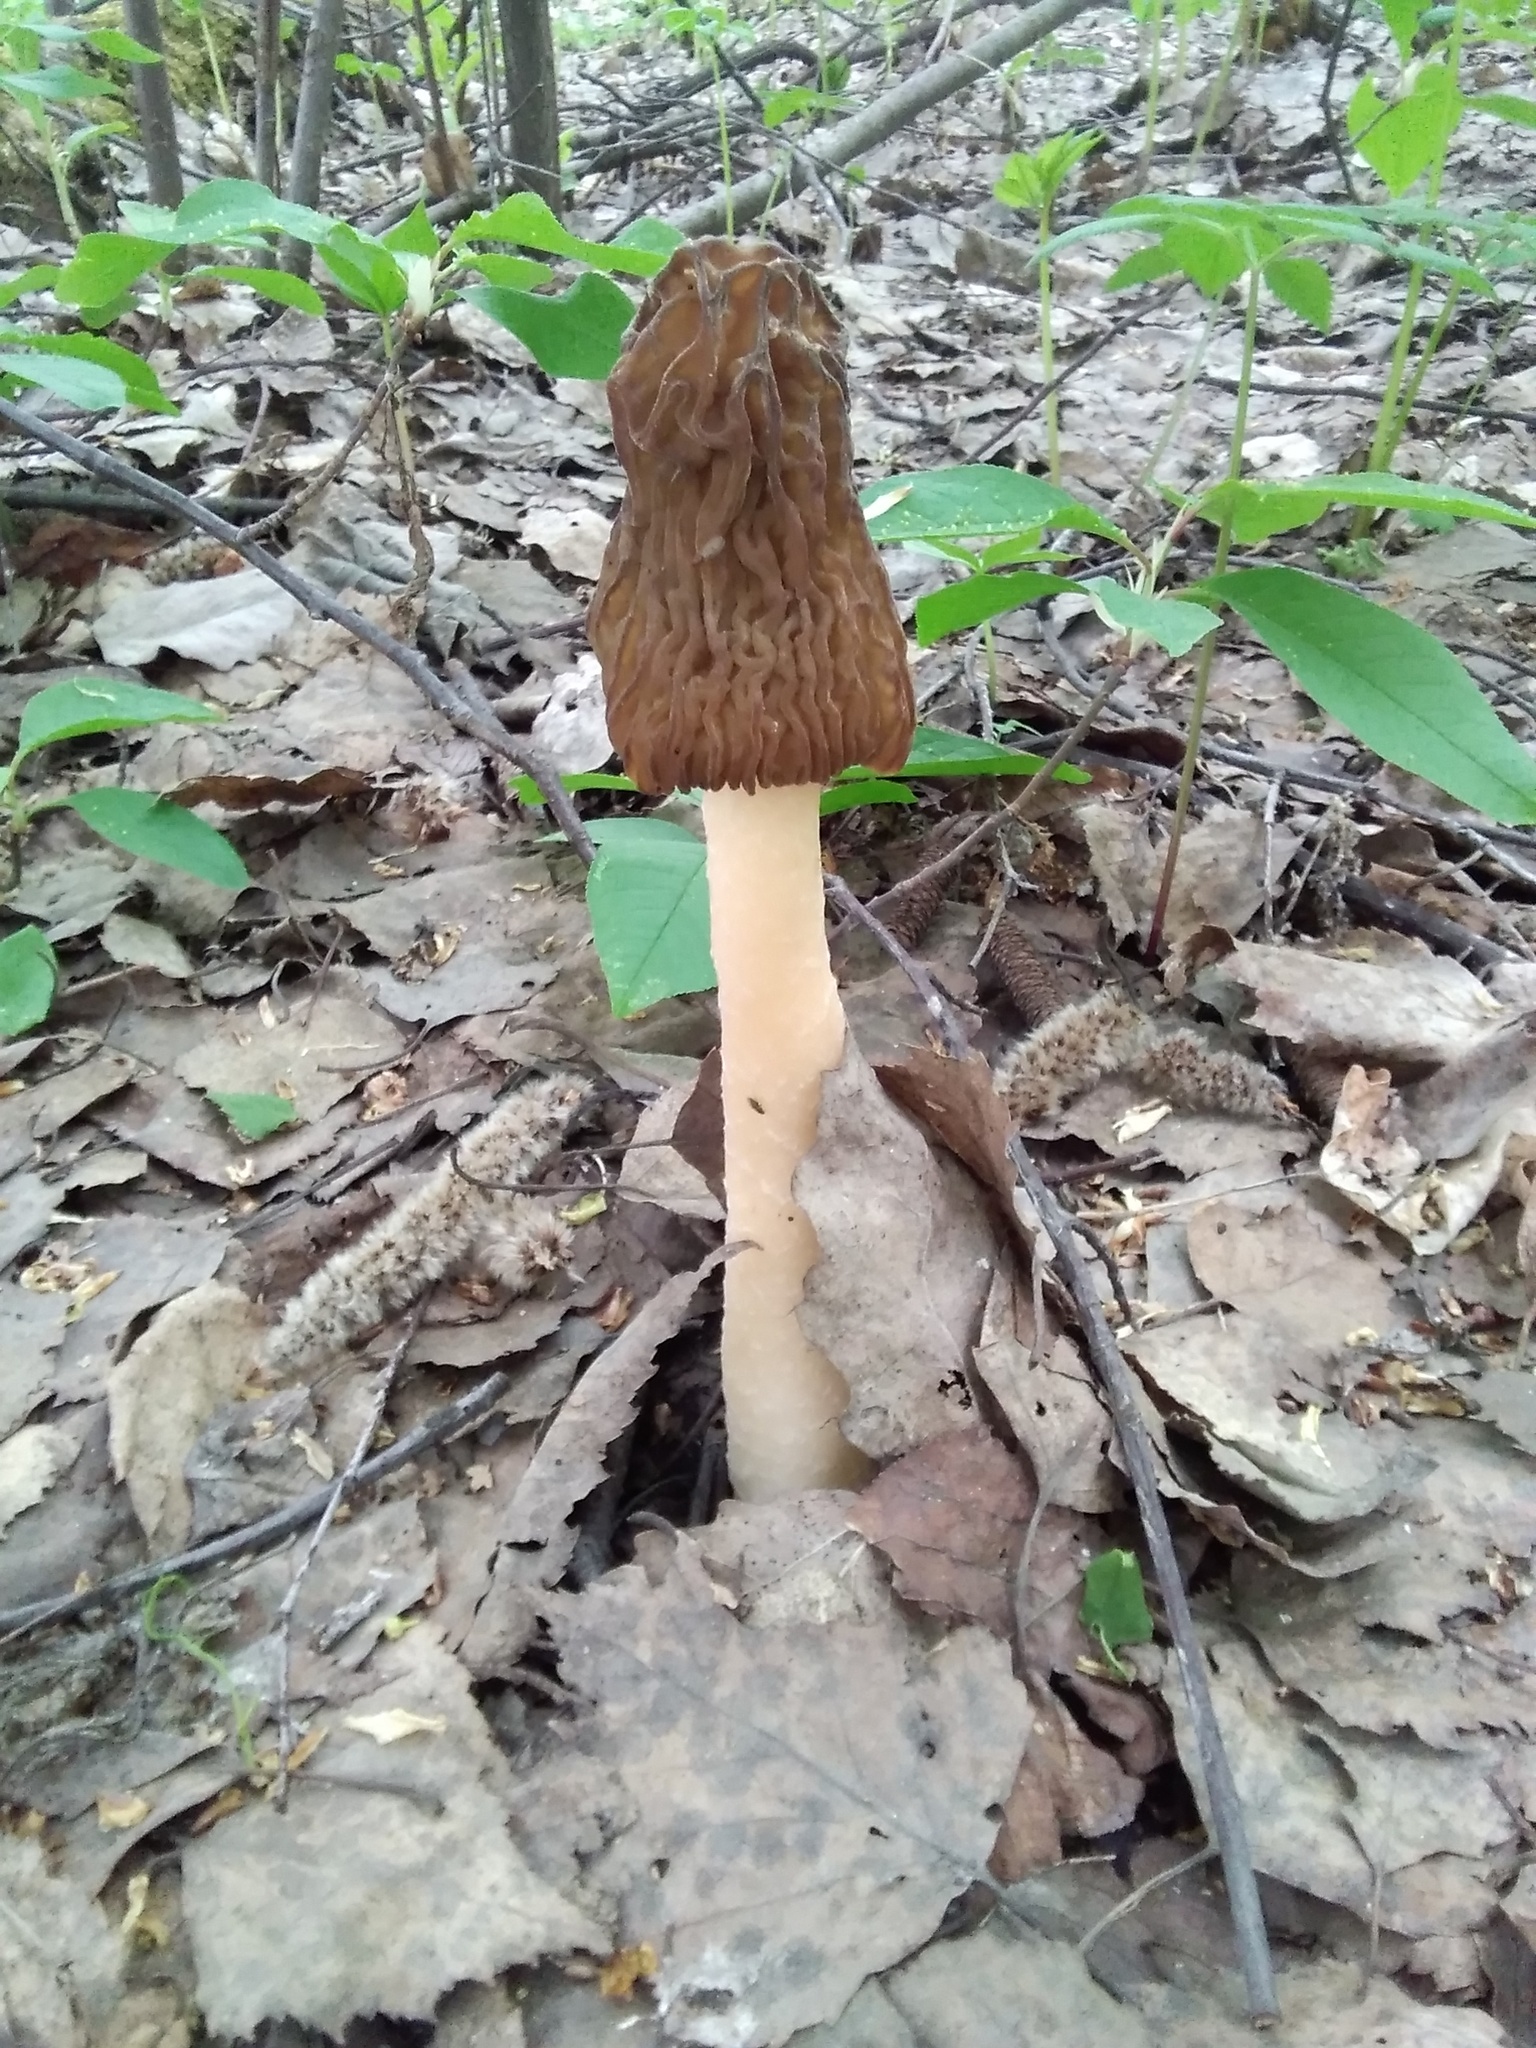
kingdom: Fungi
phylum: Ascomycota
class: Pezizomycetes
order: Pezizales
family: Morchellaceae
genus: Verpa
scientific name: Verpa bohemica
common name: Wrinkled thimble morel
